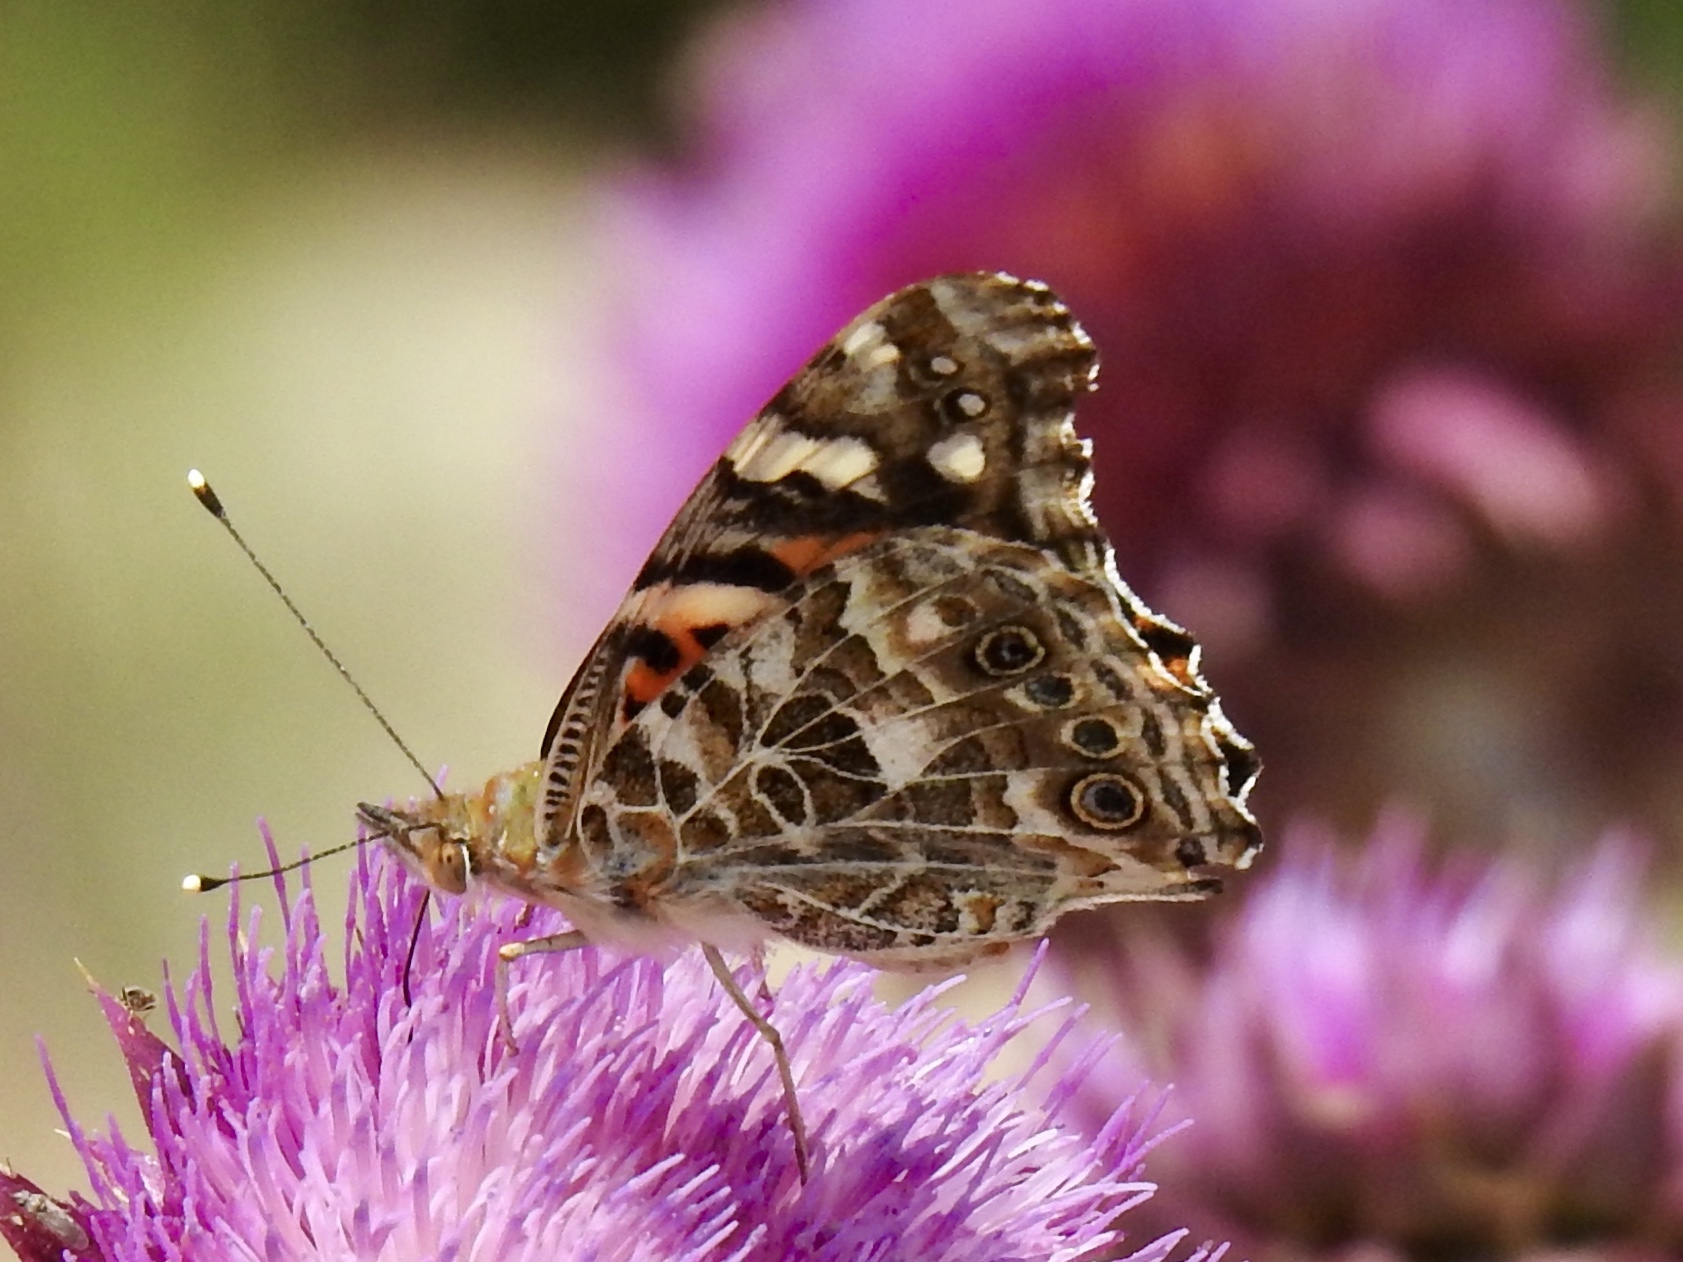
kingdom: Animalia
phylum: Arthropoda
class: Insecta
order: Lepidoptera
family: Nymphalidae
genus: Vanessa
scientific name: Vanessa cardui
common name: Painted lady
